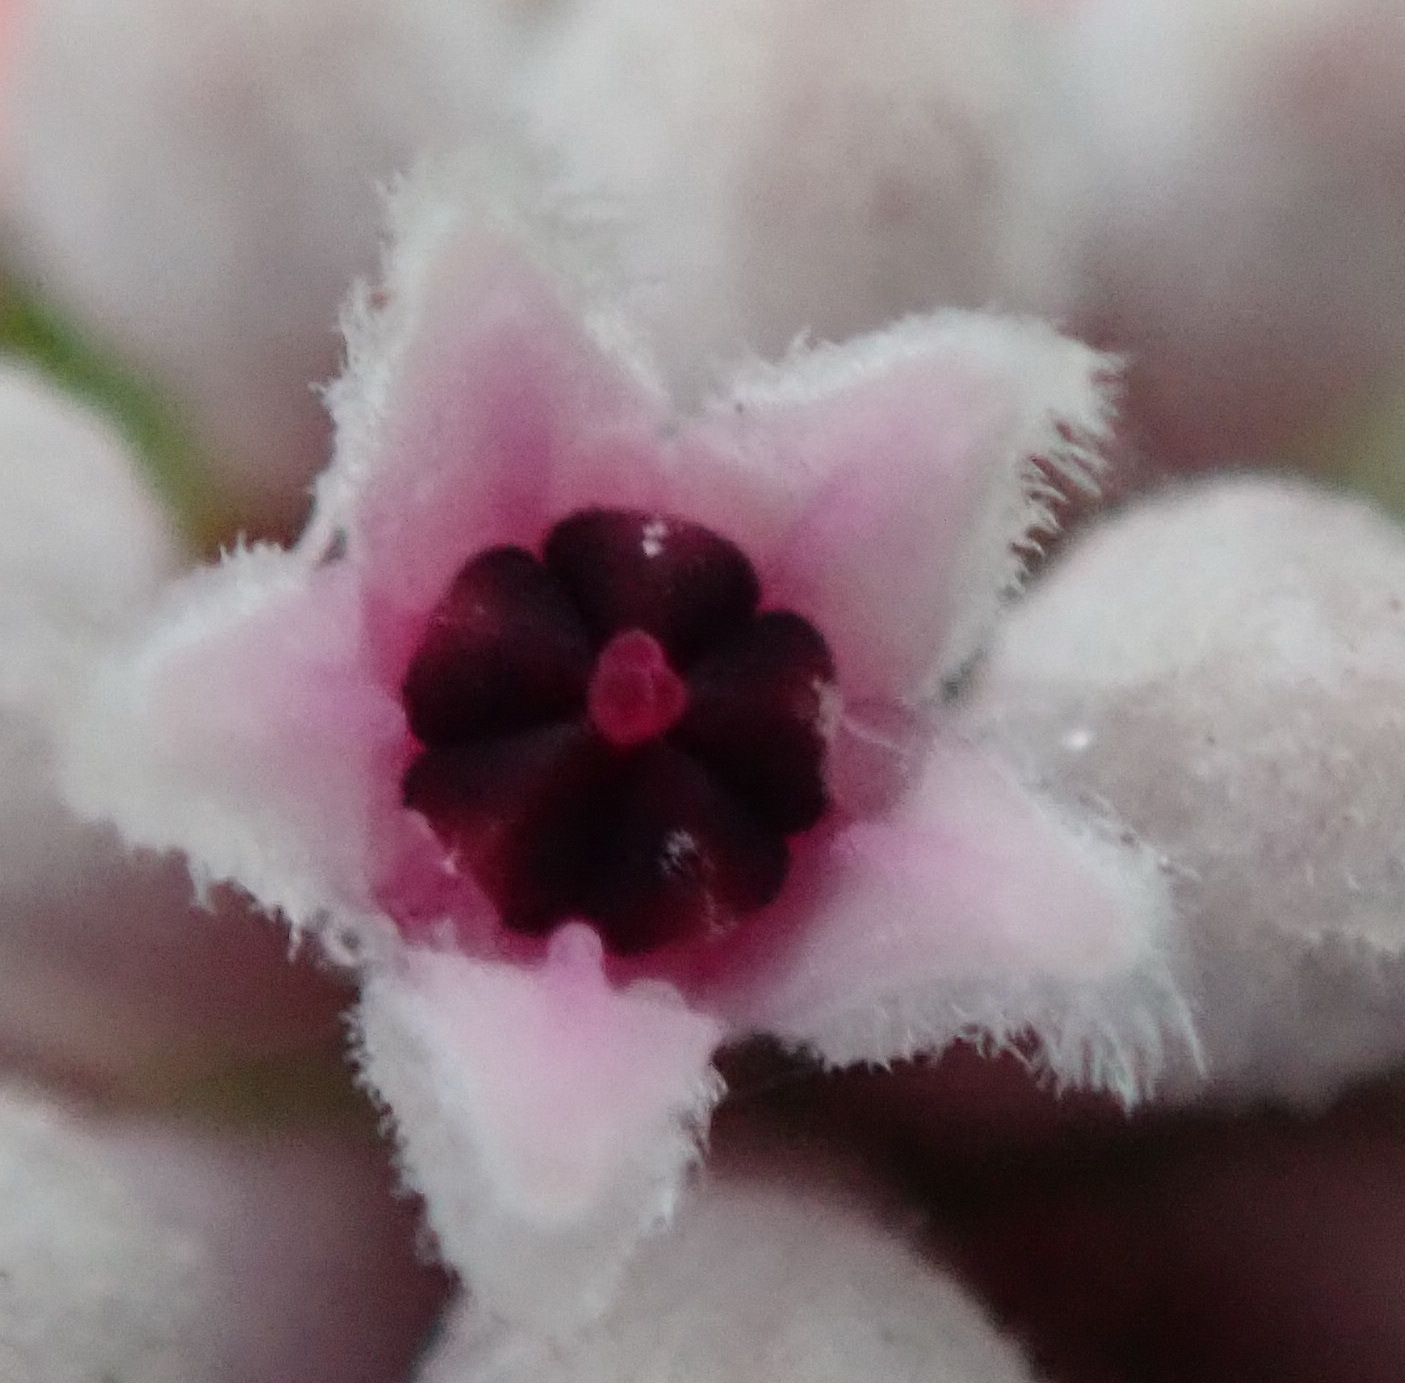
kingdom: Plantae
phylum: Tracheophyta
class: Magnoliopsida
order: Rosales
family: Rhamnaceae
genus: Phylica
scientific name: Phylica lachneaeoides
